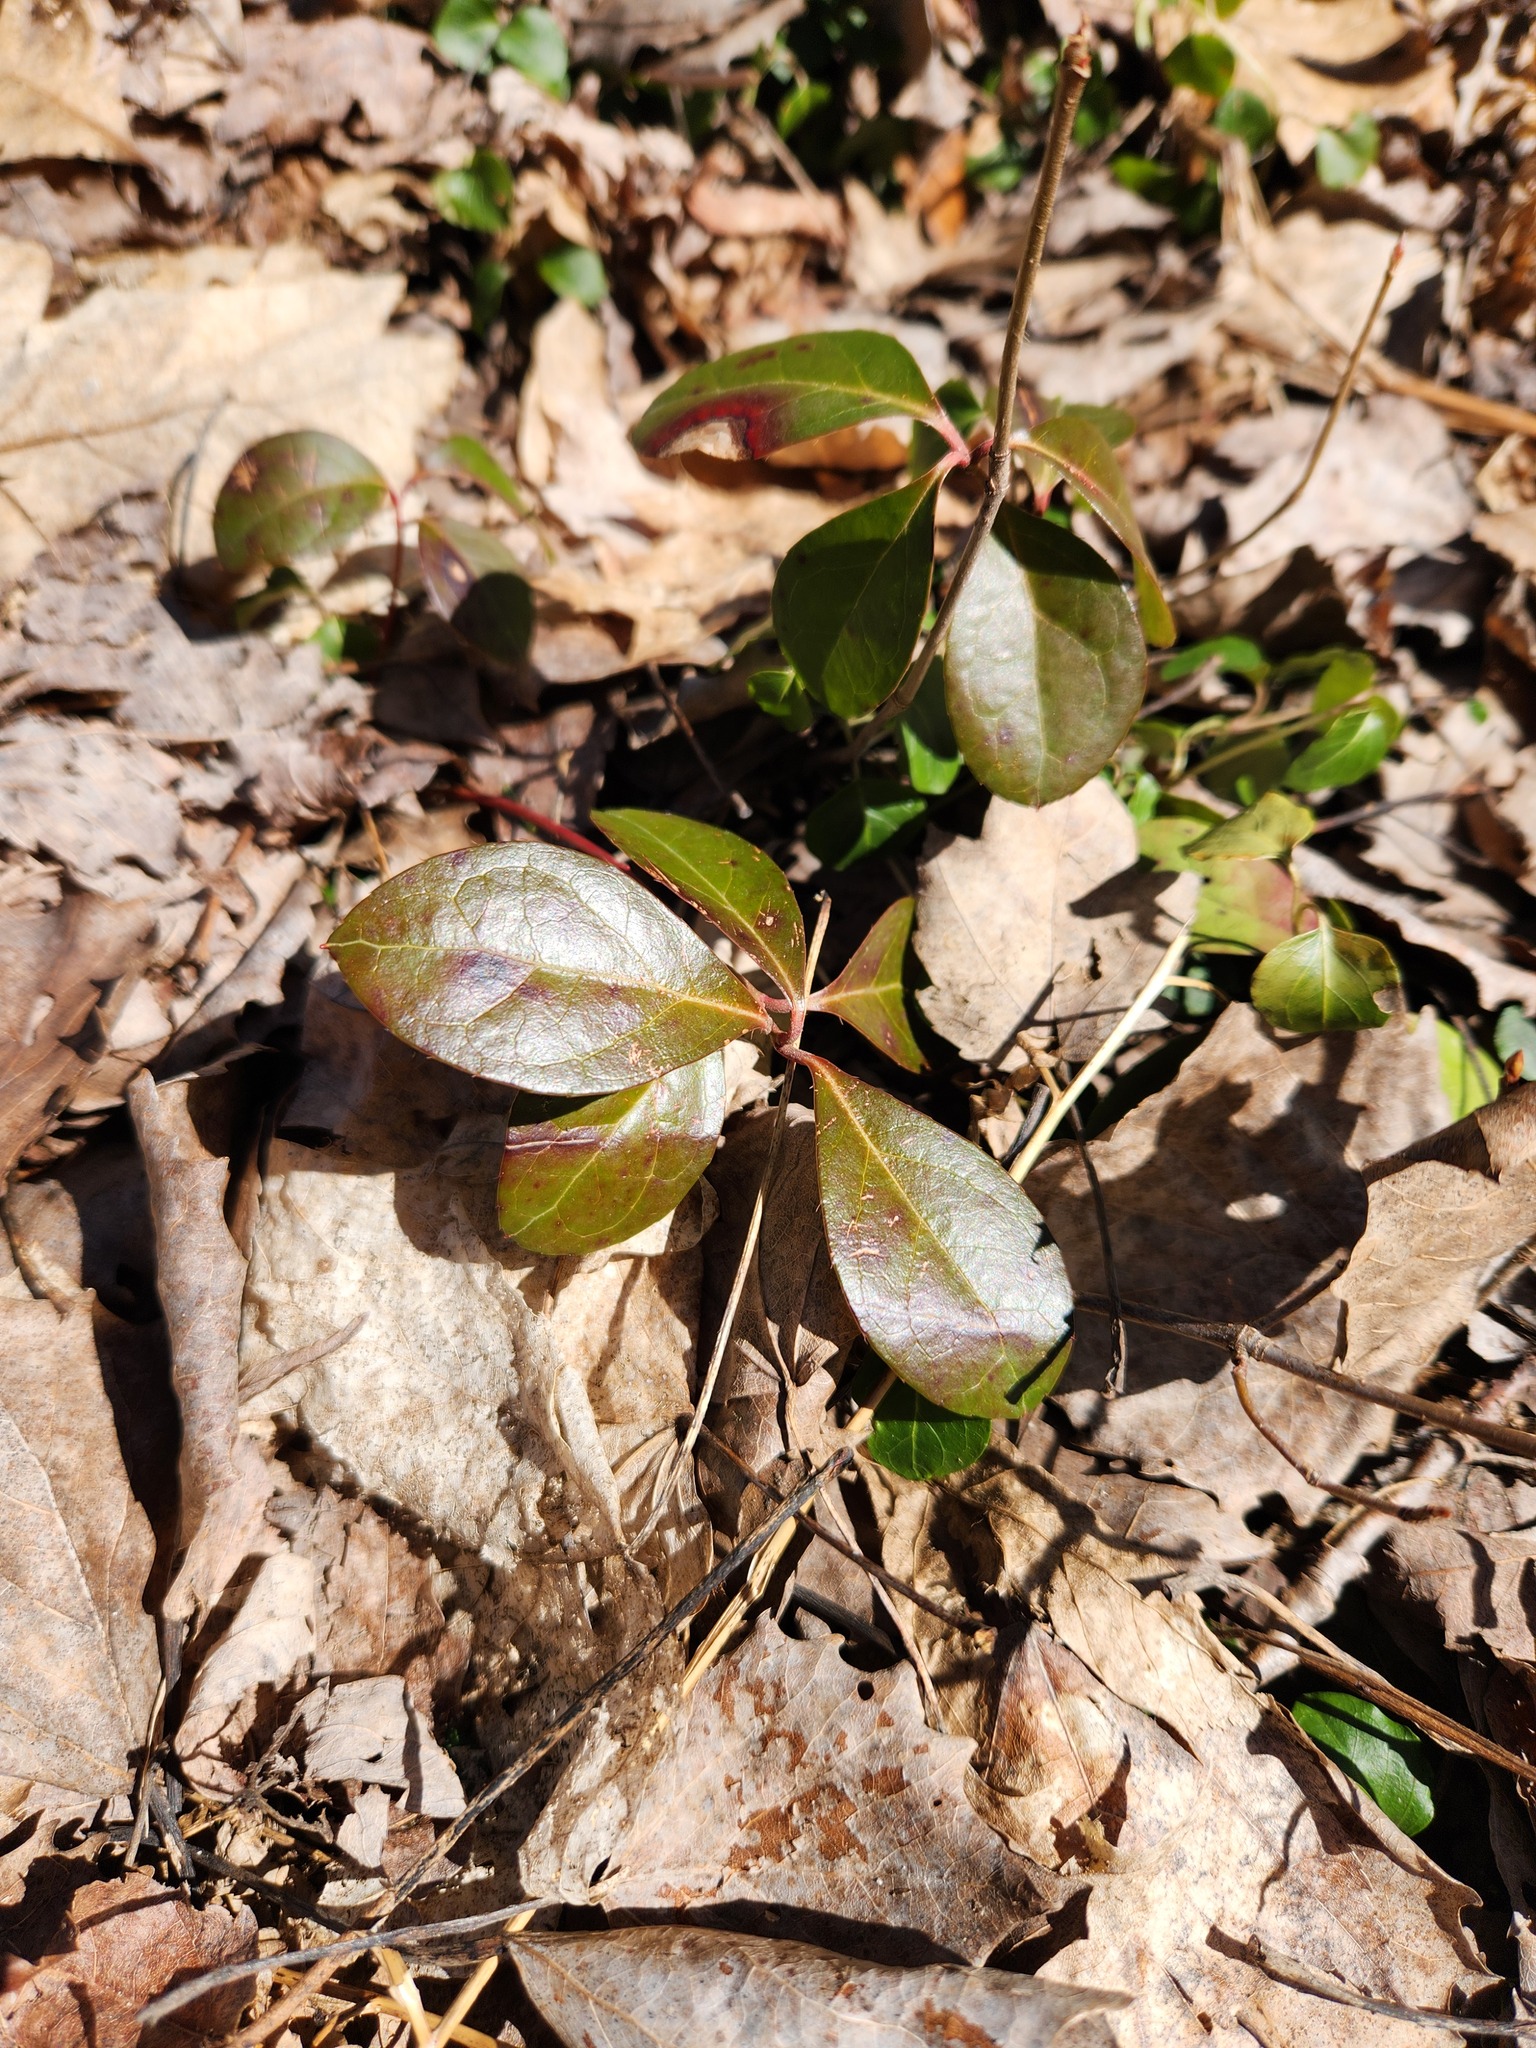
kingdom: Plantae
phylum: Tracheophyta
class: Magnoliopsida
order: Ericales
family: Ericaceae
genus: Gaultheria
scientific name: Gaultheria procumbens
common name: Checkerberry
